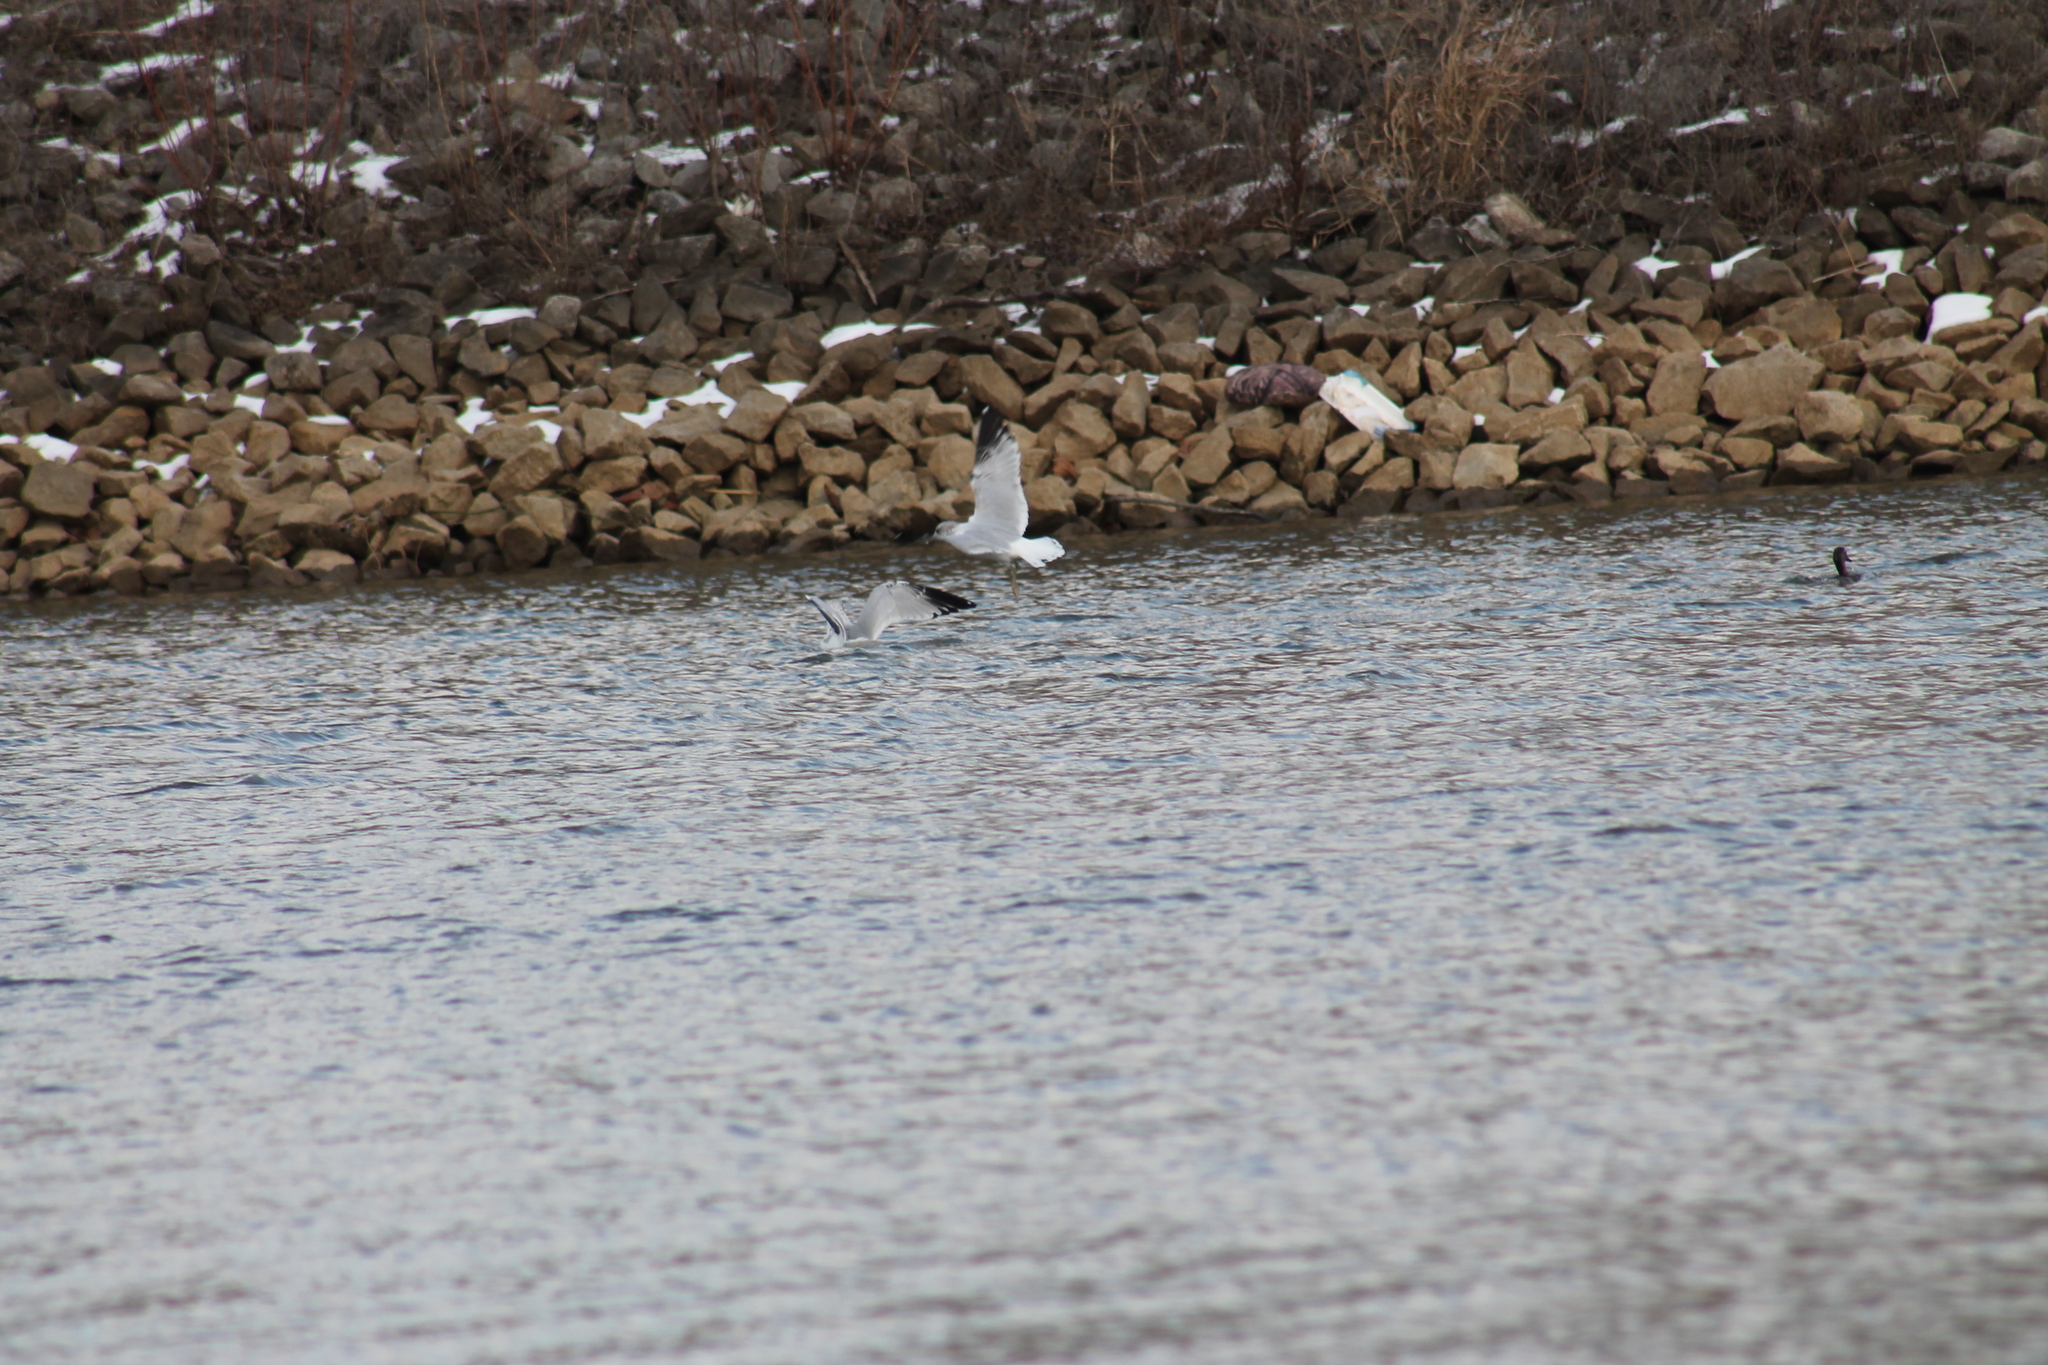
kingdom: Animalia
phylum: Chordata
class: Aves
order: Charadriiformes
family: Laridae
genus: Larus
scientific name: Larus delawarensis
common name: Ring-billed gull
